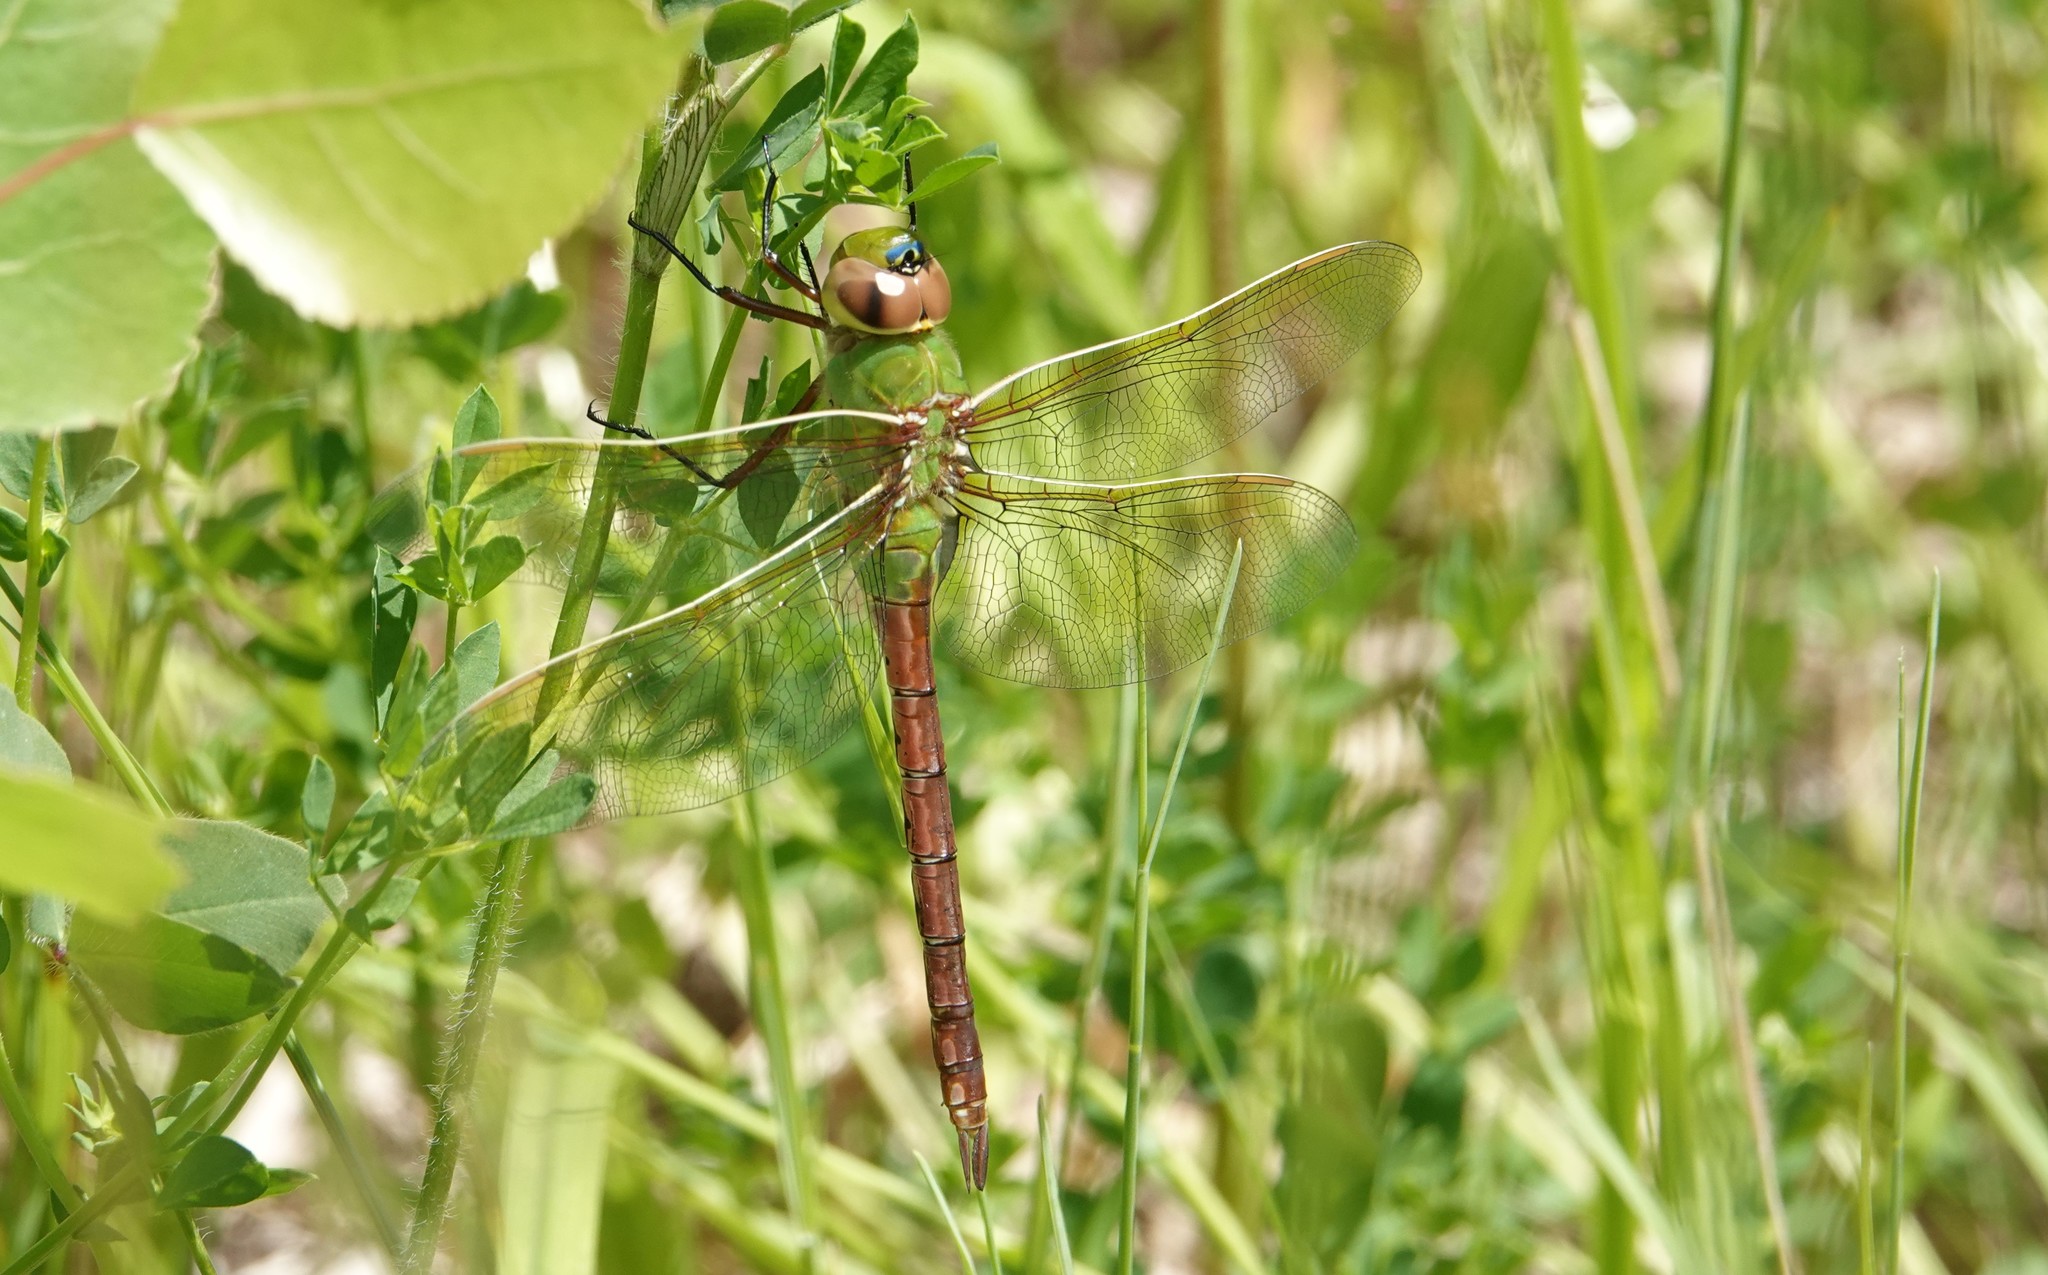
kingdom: Animalia
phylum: Arthropoda
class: Insecta
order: Odonata
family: Aeshnidae
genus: Anax
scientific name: Anax junius
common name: Common green darner
